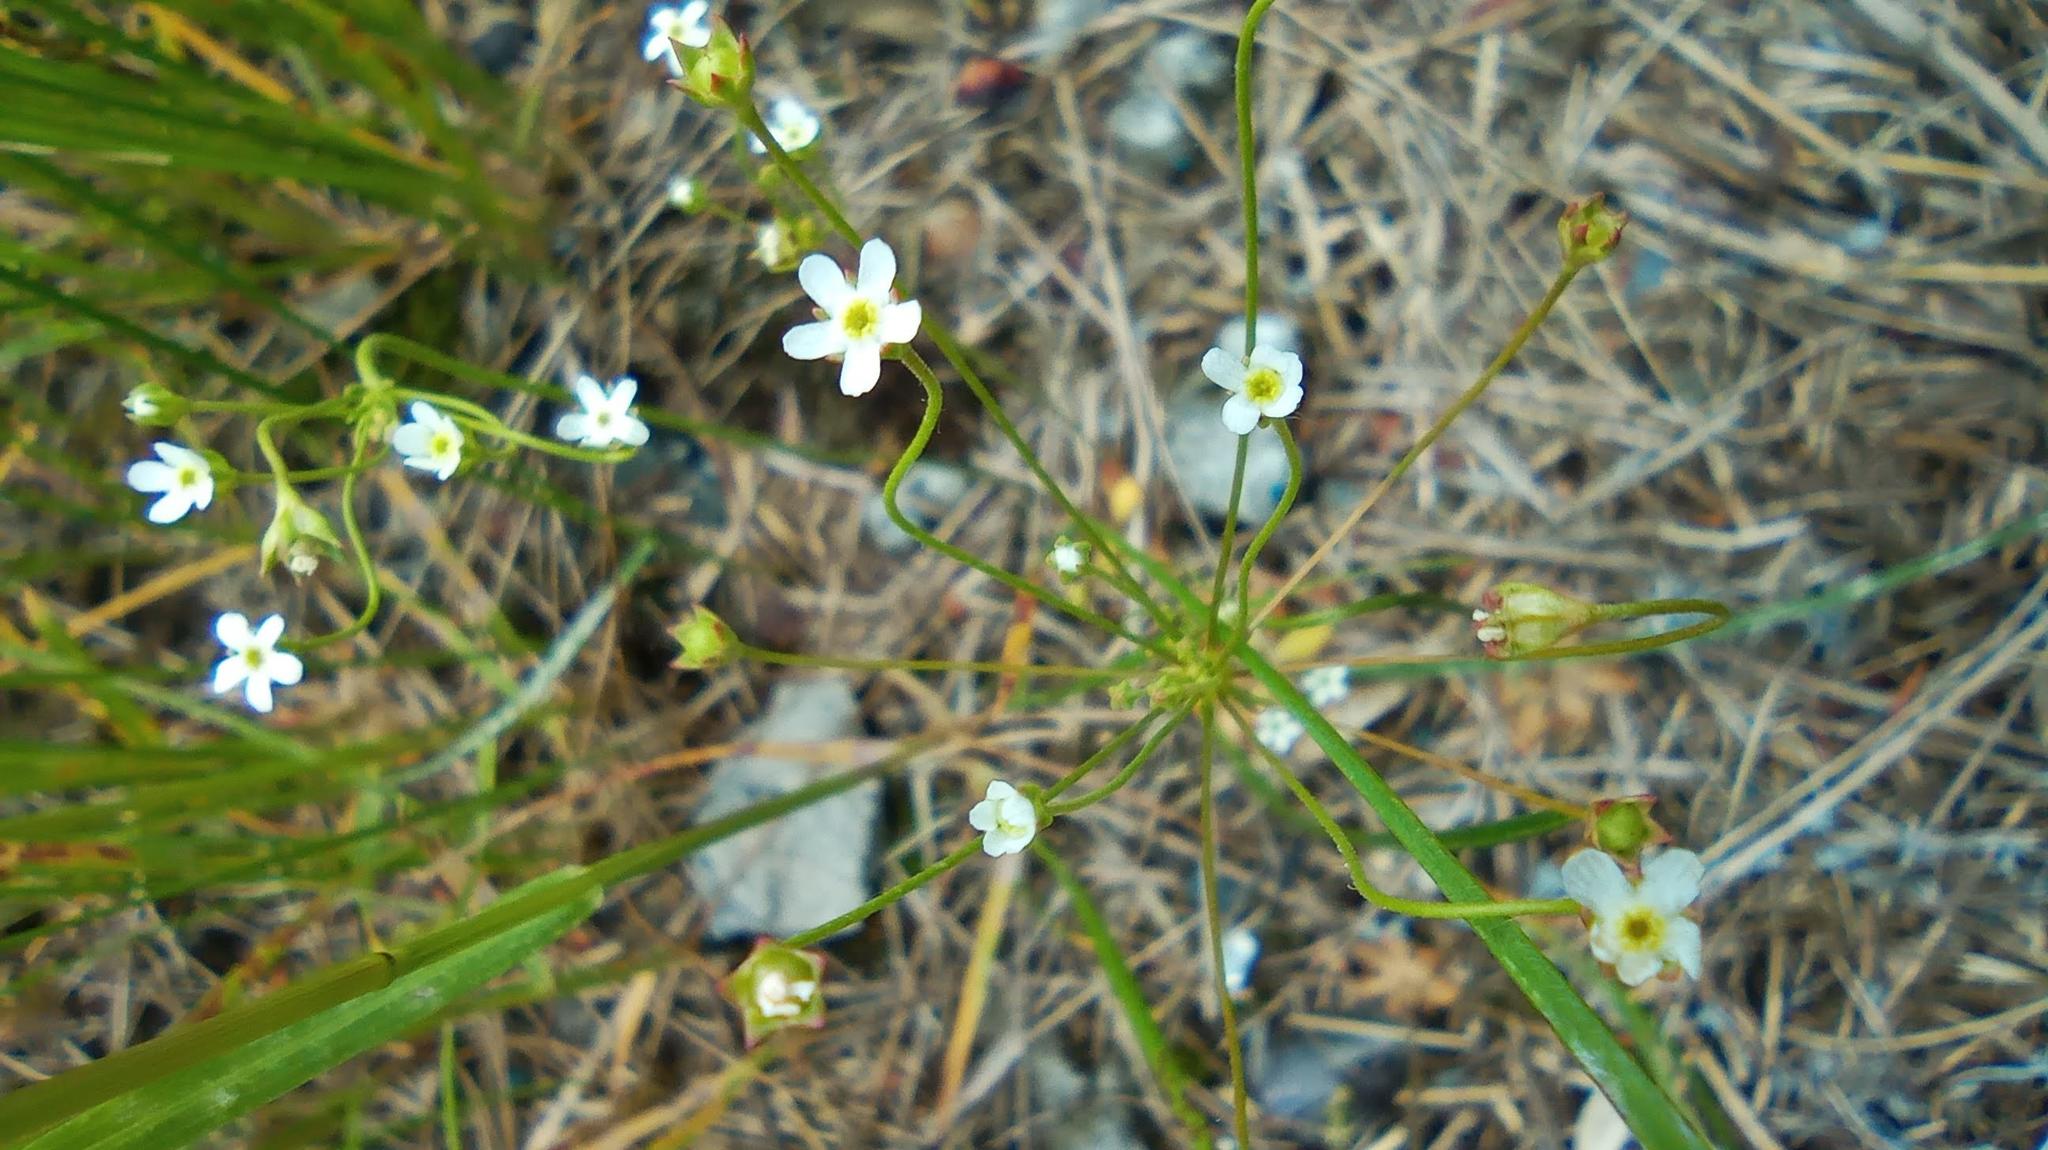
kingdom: Plantae
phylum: Tracheophyta
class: Magnoliopsida
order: Ericales
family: Primulaceae
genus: Androsace
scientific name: Androsace septentrionalis
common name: Hairy northern fairy-candelabra
